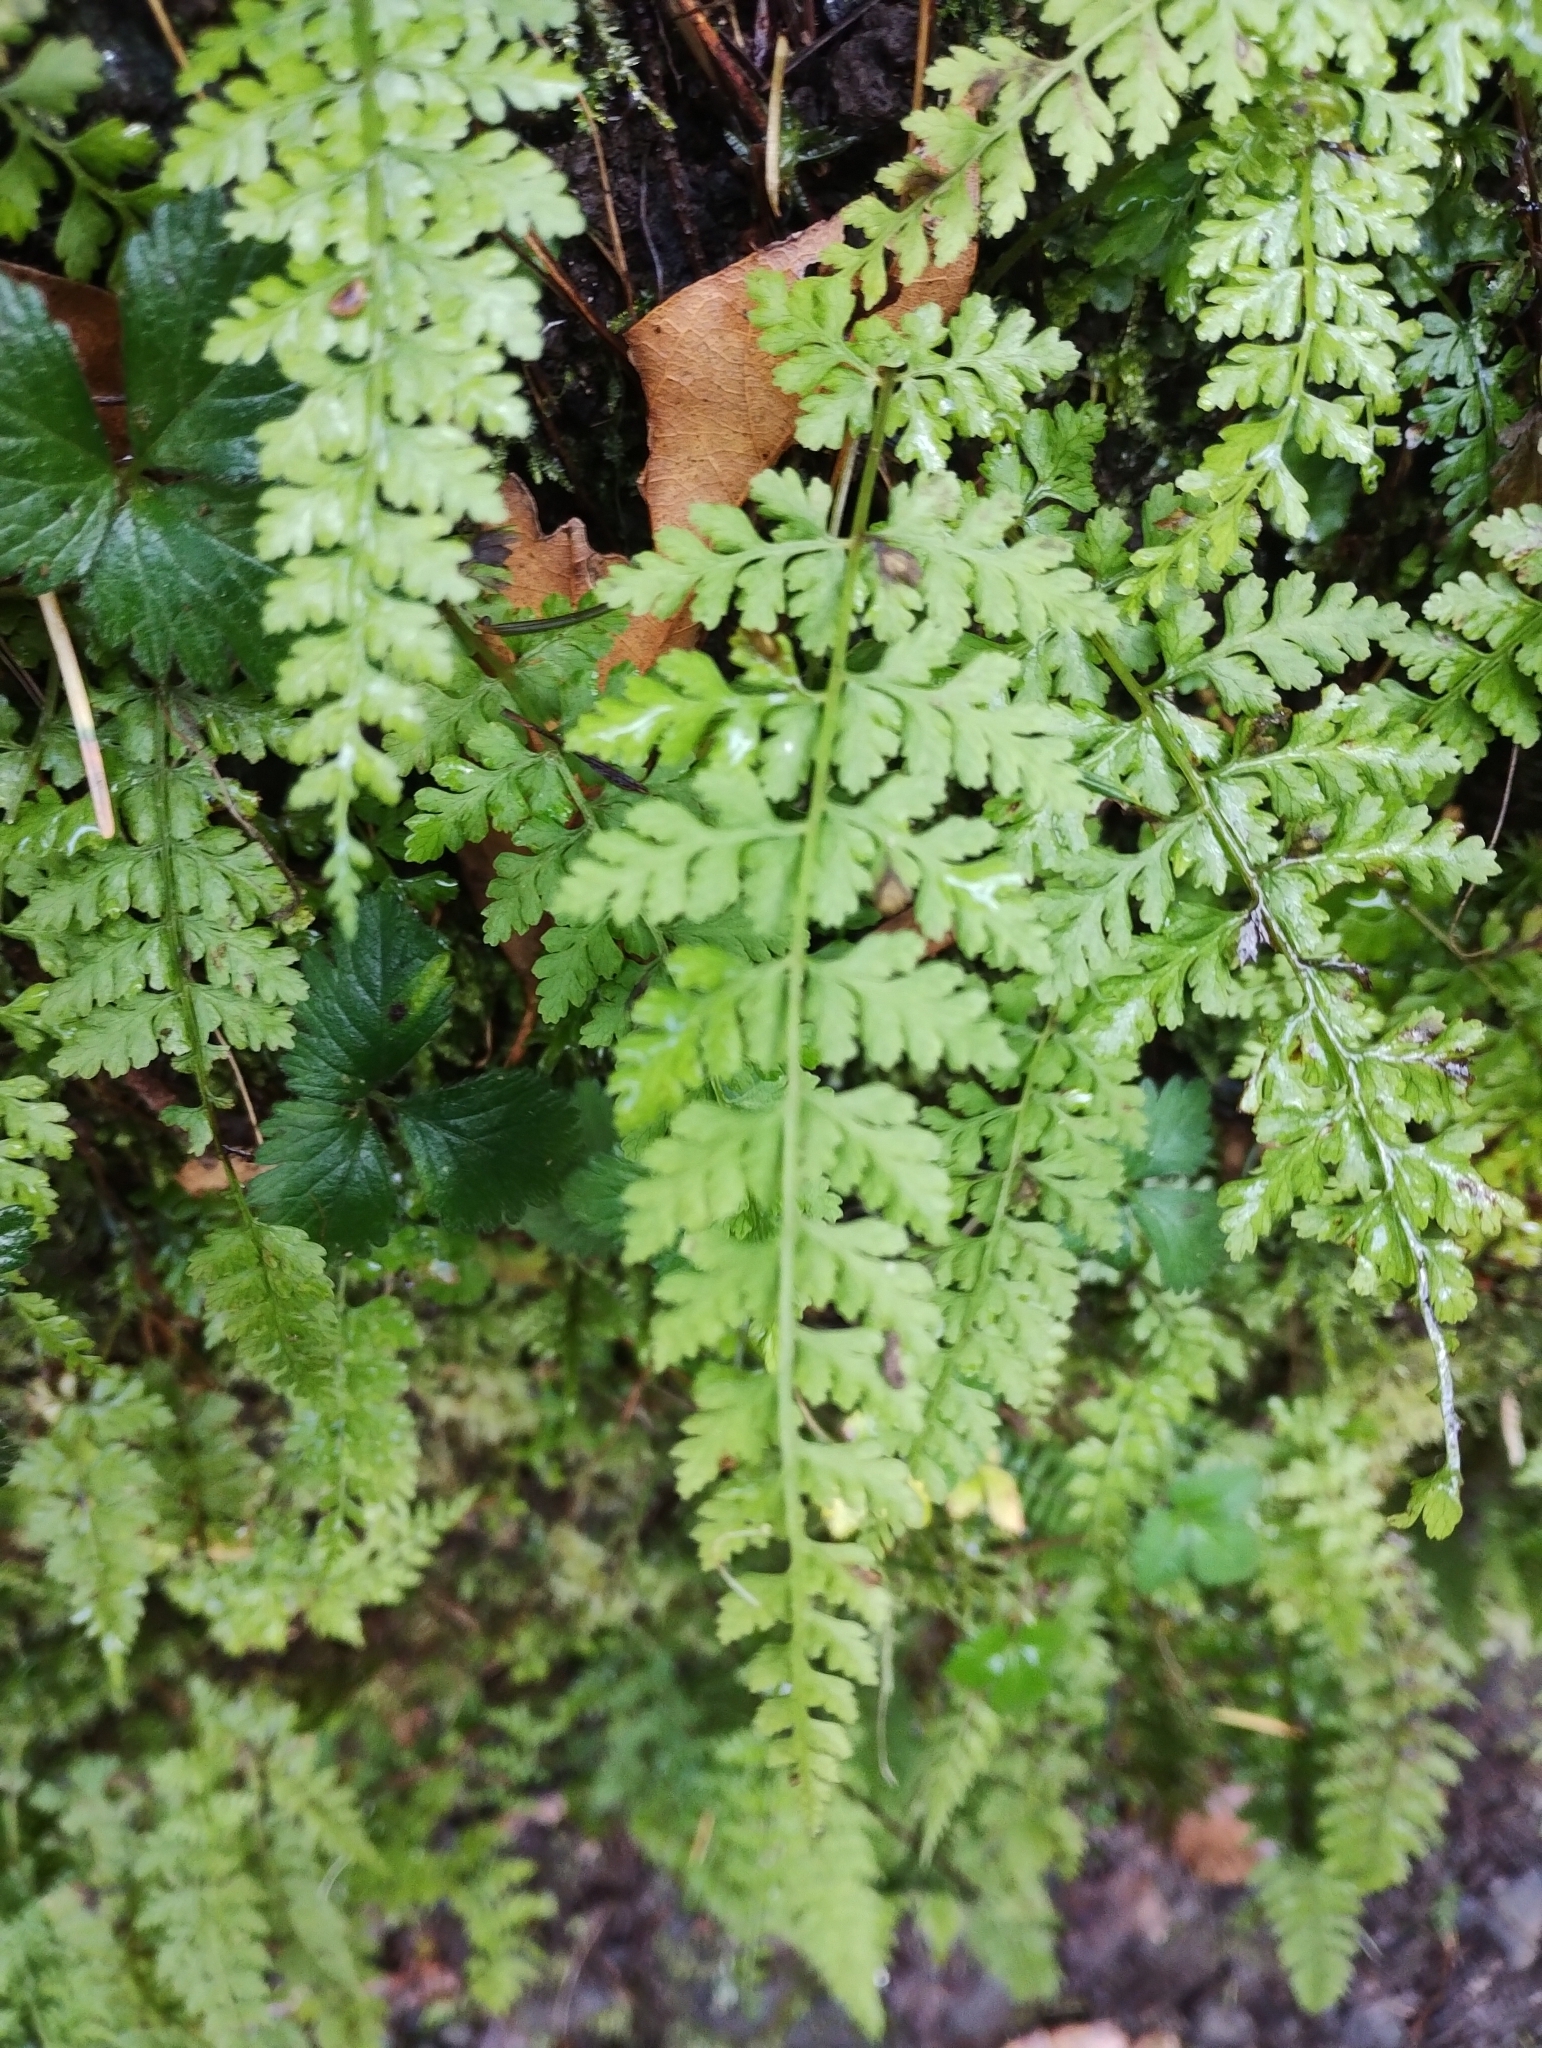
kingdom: Plantae
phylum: Tracheophyta
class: Polypodiopsida
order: Polypodiales
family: Cystopteridaceae
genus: Cystopteris
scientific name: Cystopteris diaphana
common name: Greenish bladder-fern
